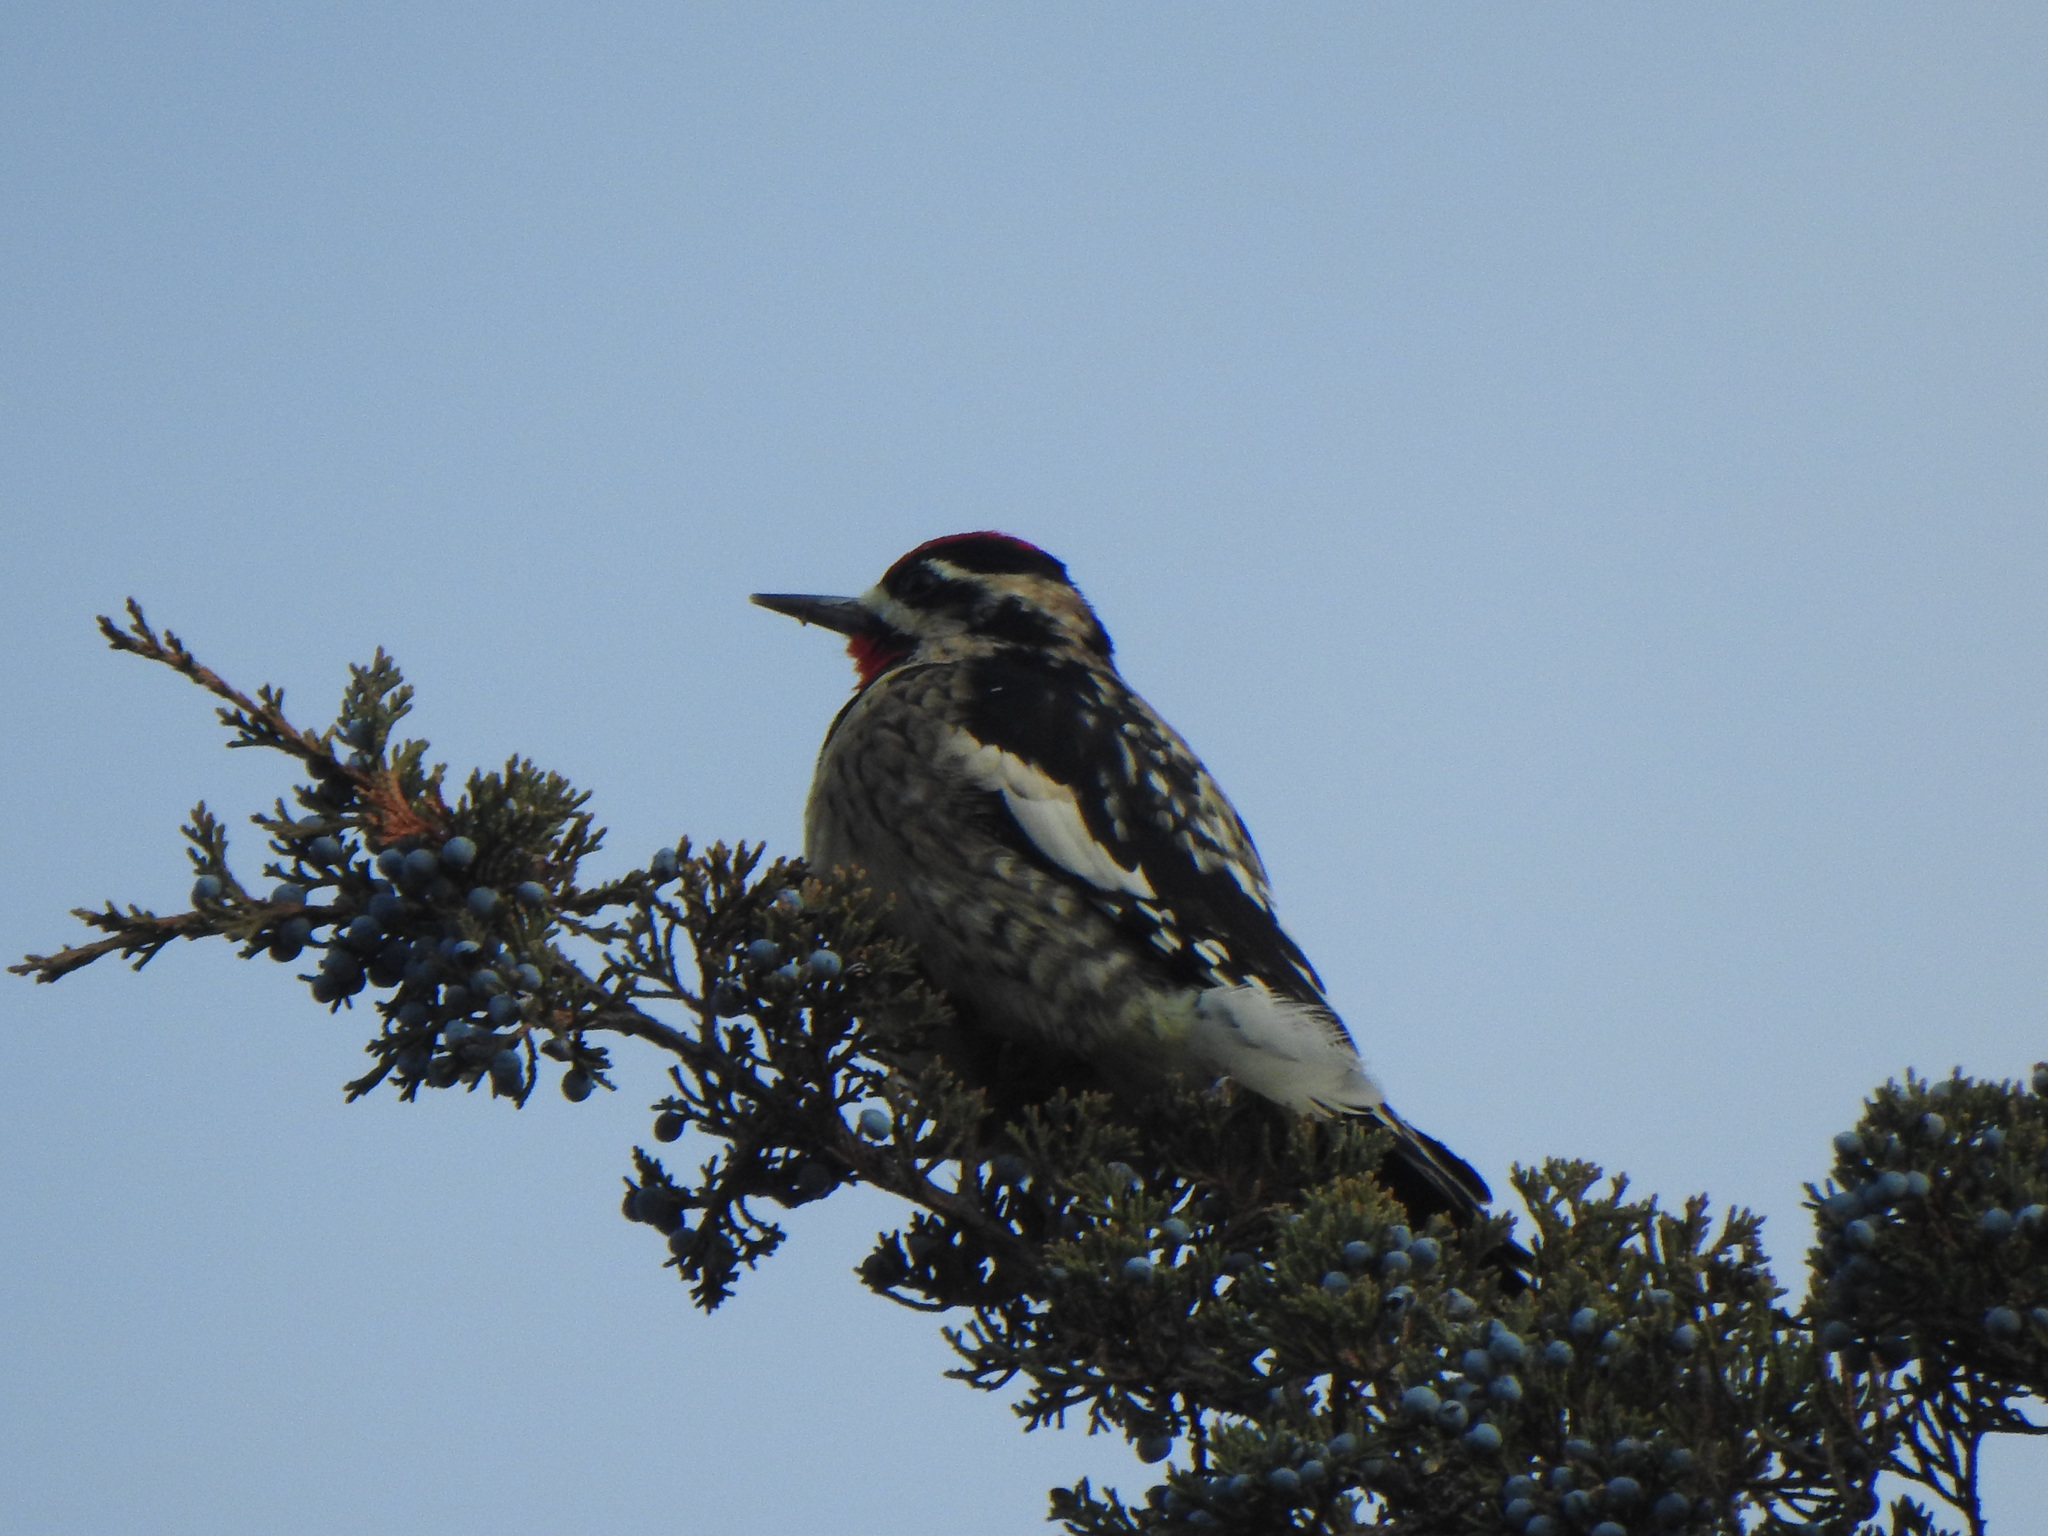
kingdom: Animalia
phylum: Chordata
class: Aves
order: Piciformes
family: Picidae
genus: Sphyrapicus
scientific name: Sphyrapicus varius
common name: Yellow-bellied sapsucker
